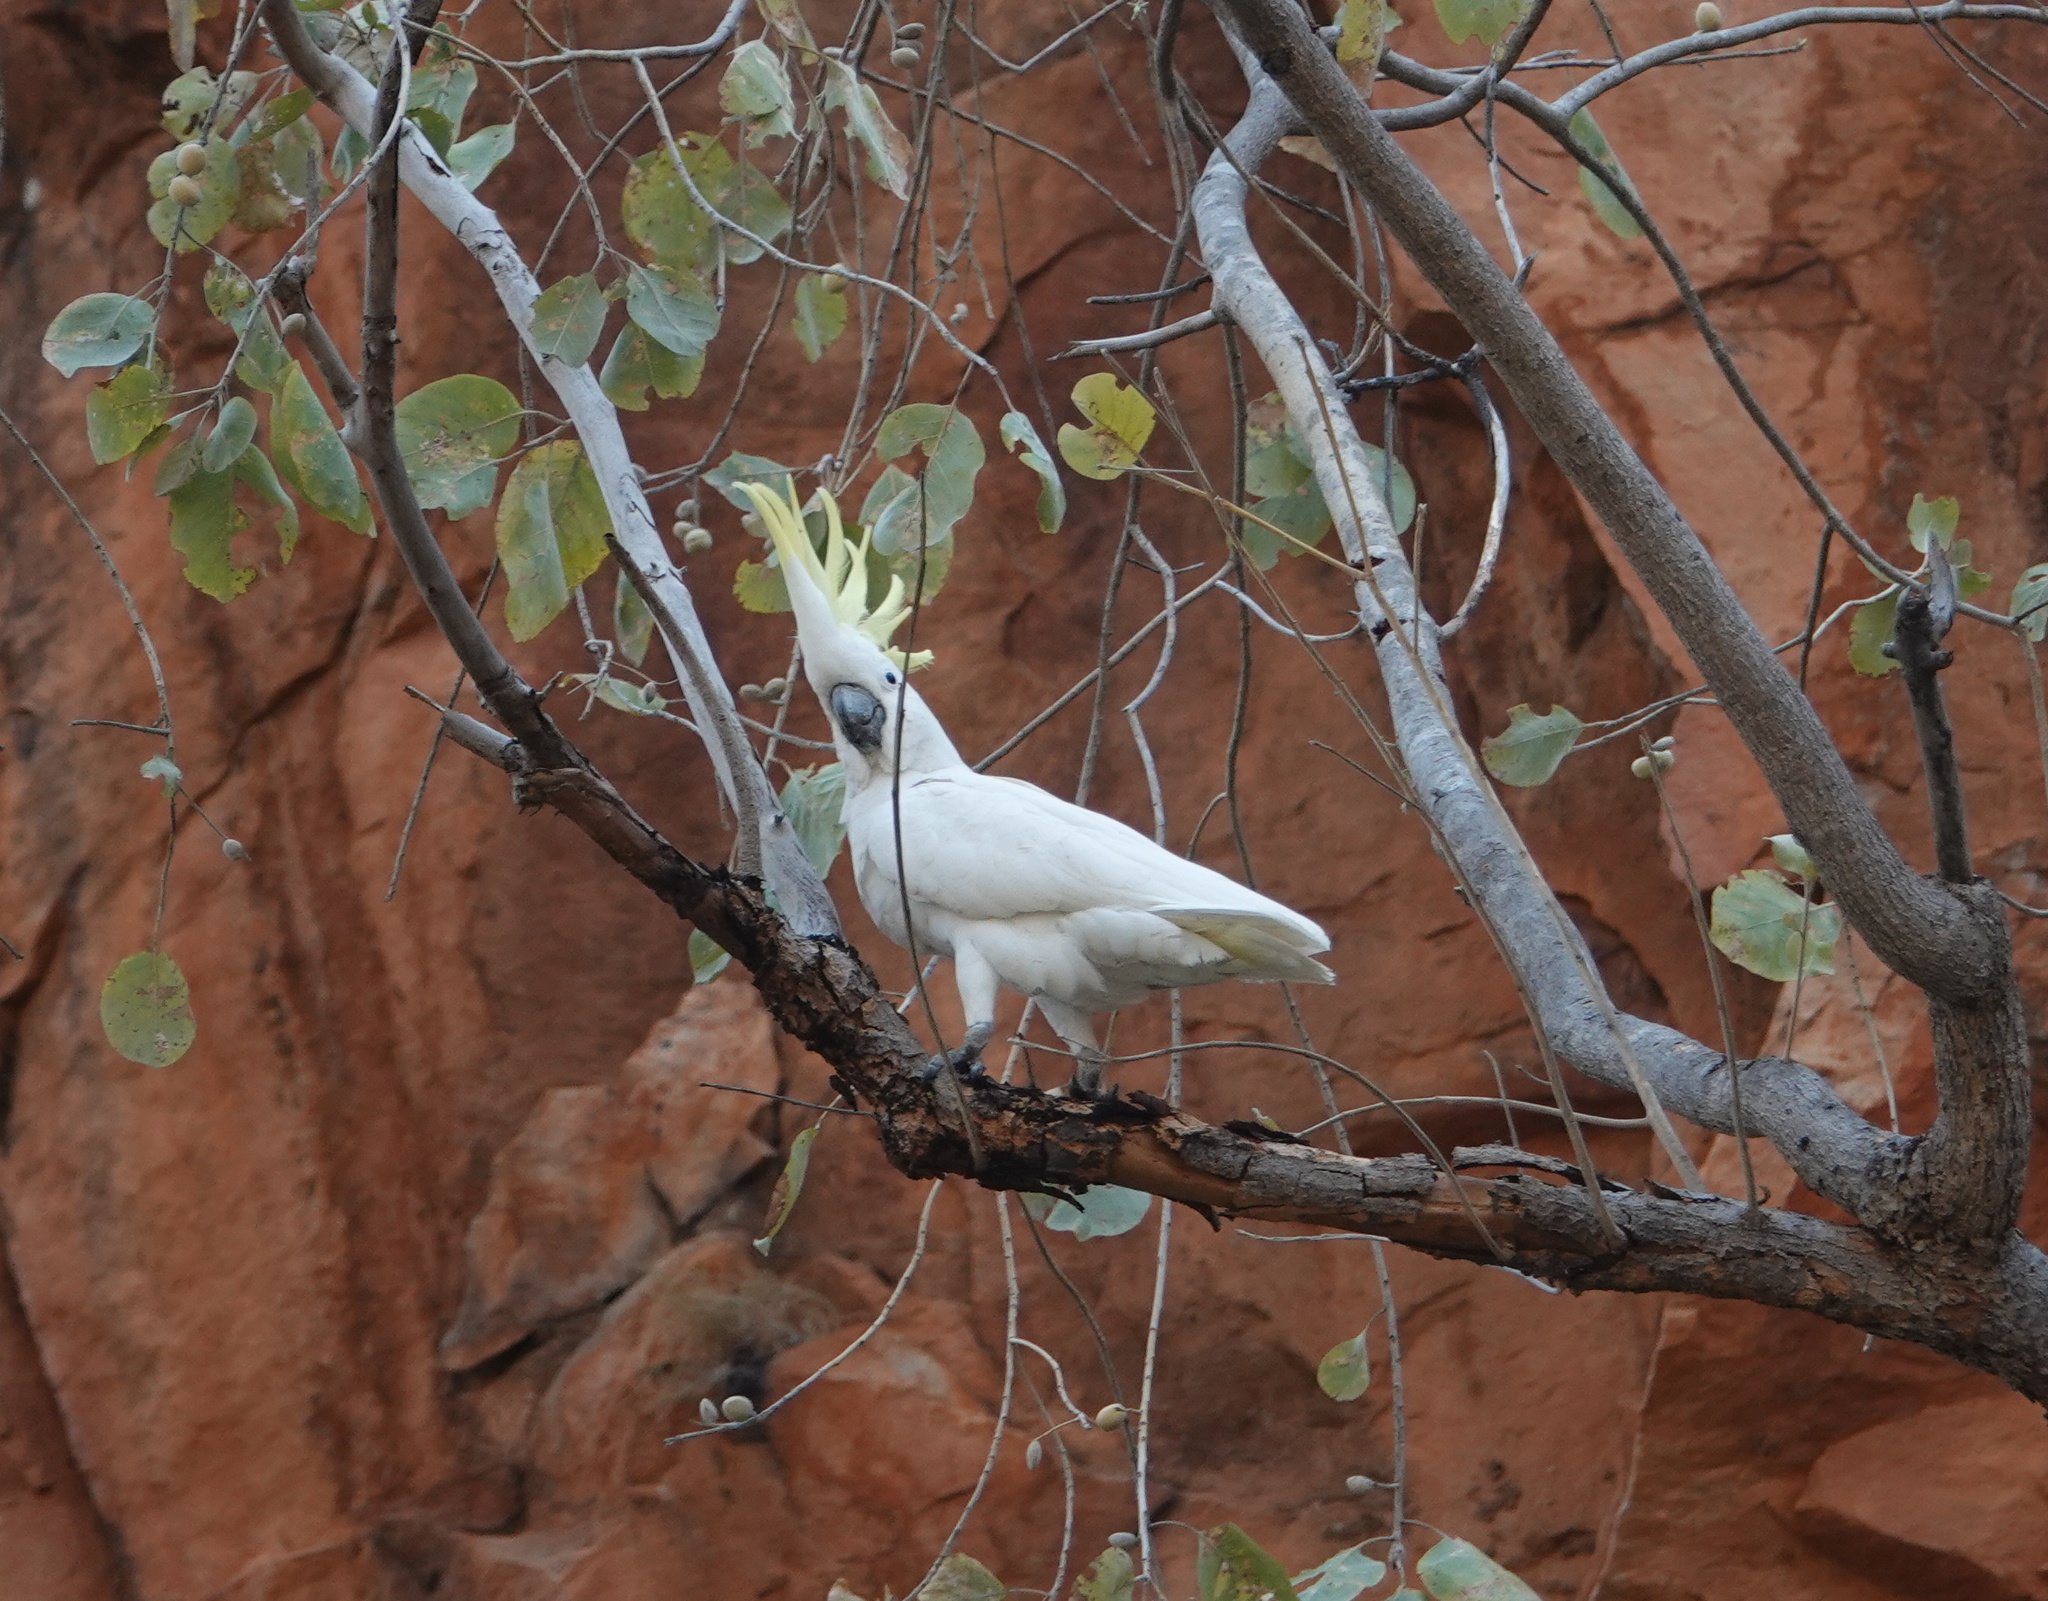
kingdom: Animalia
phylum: Chordata
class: Aves
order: Psittaciformes
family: Psittacidae
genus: Cacatua
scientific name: Cacatua galerita
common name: Sulphur-crested cockatoo
